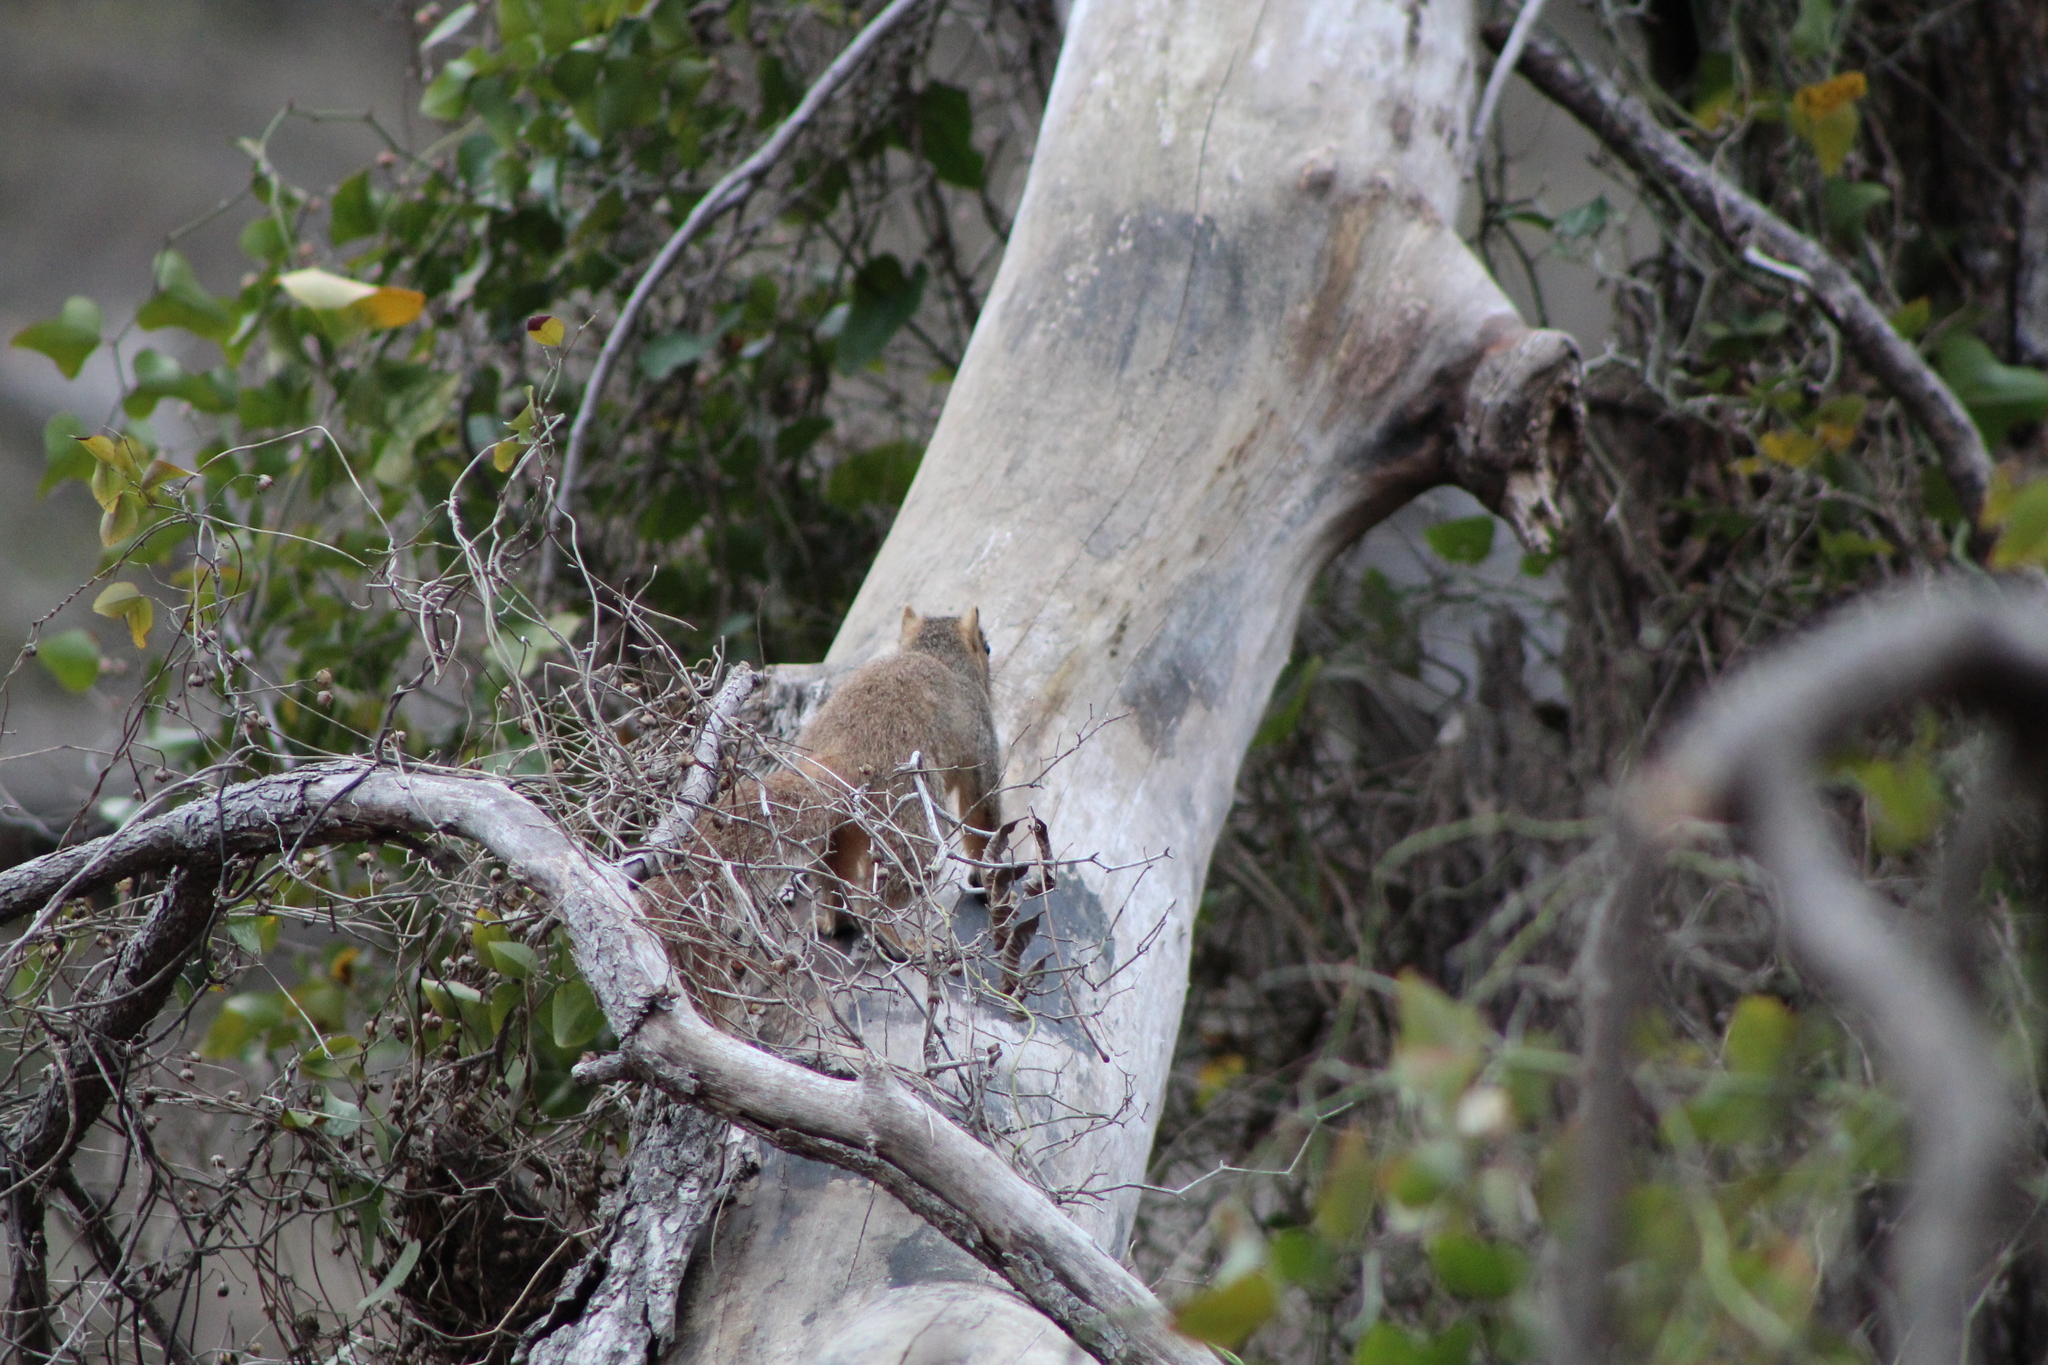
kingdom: Animalia
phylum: Chordata
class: Mammalia
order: Rodentia
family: Sciuridae
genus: Sciurus
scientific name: Sciurus niger
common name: Fox squirrel
